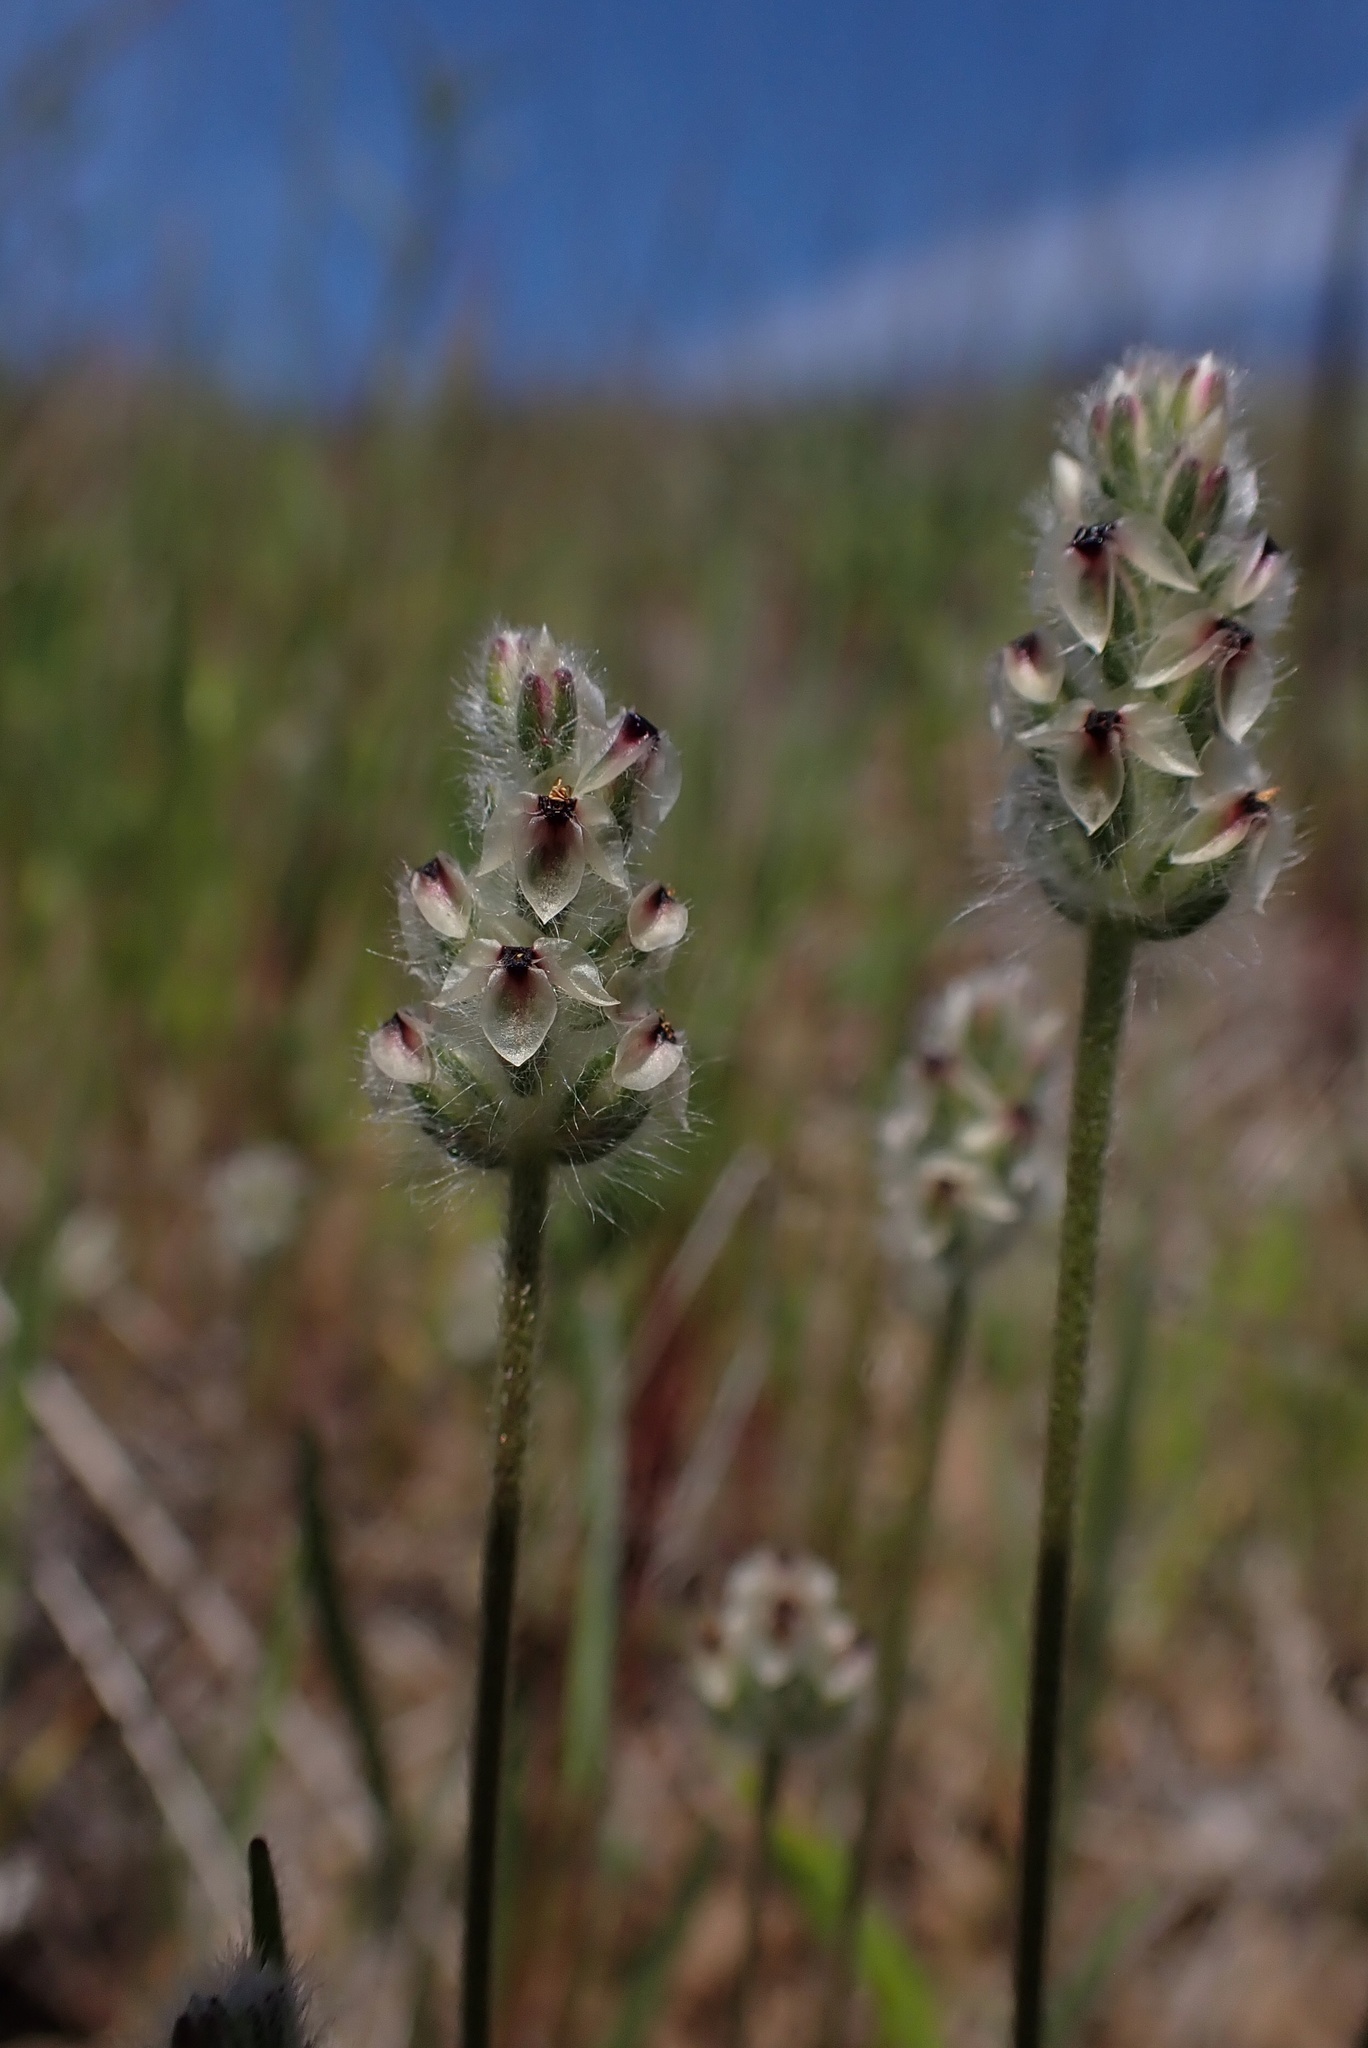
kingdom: Plantae
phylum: Tracheophyta
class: Magnoliopsida
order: Lamiales
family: Plantaginaceae
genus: Plantago
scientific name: Plantago erecta
